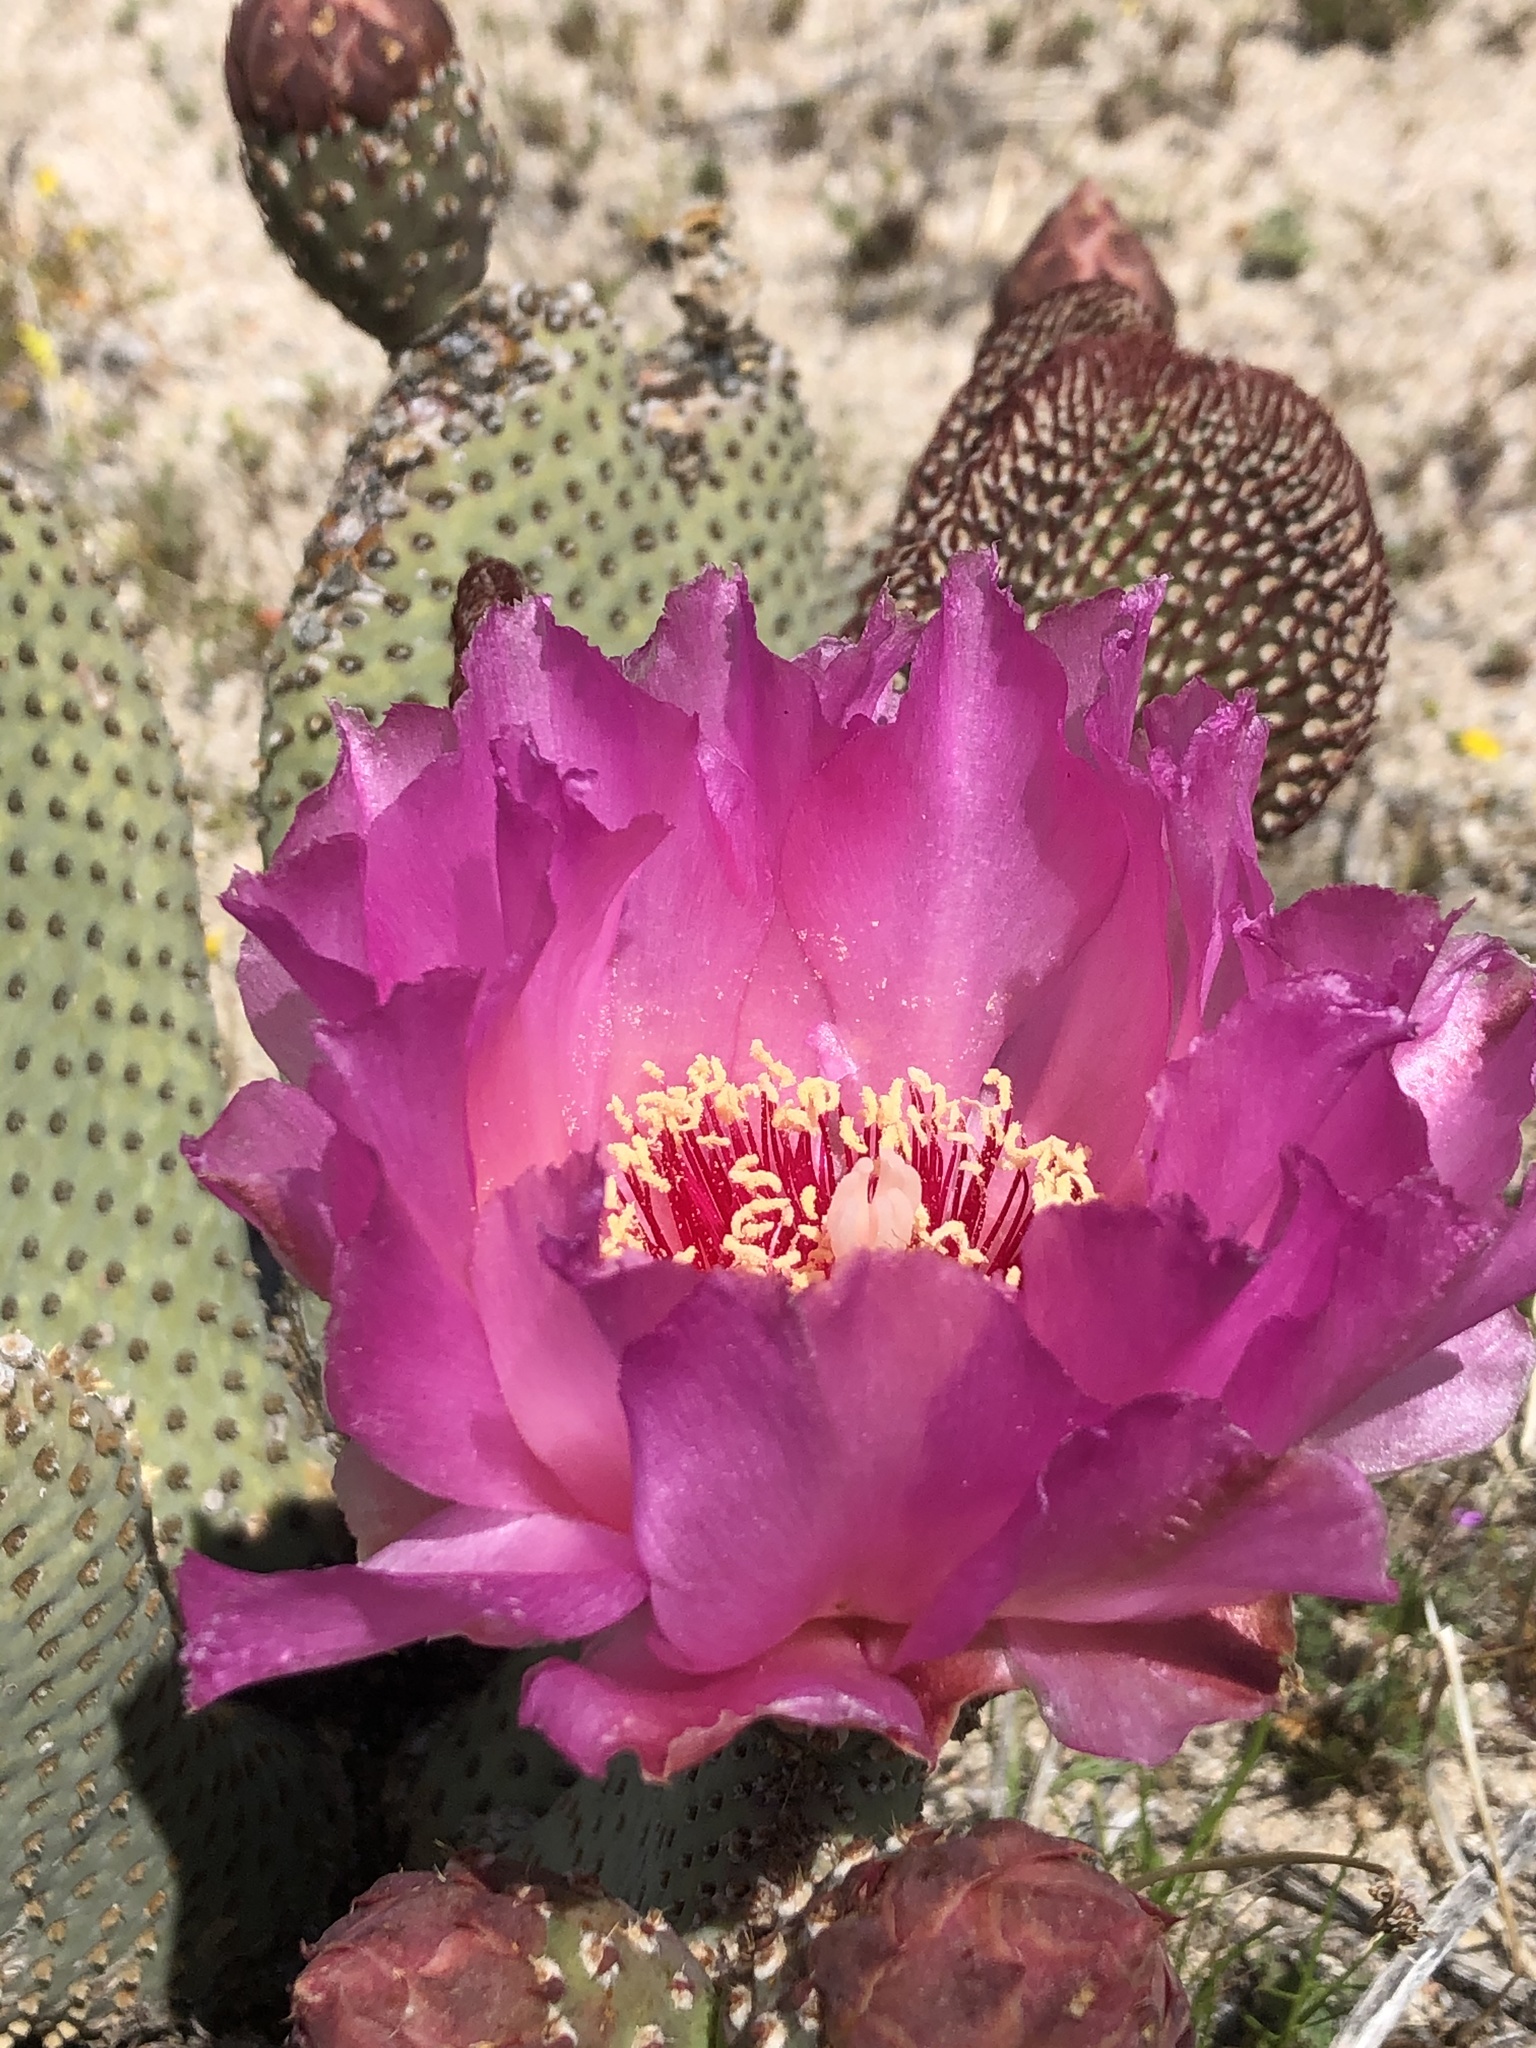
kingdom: Plantae
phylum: Tracheophyta
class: Magnoliopsida
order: Caryophyllales
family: Cactaceae
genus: Opuntia
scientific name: Opuntia basilaris
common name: Beavertail prickly-pear
